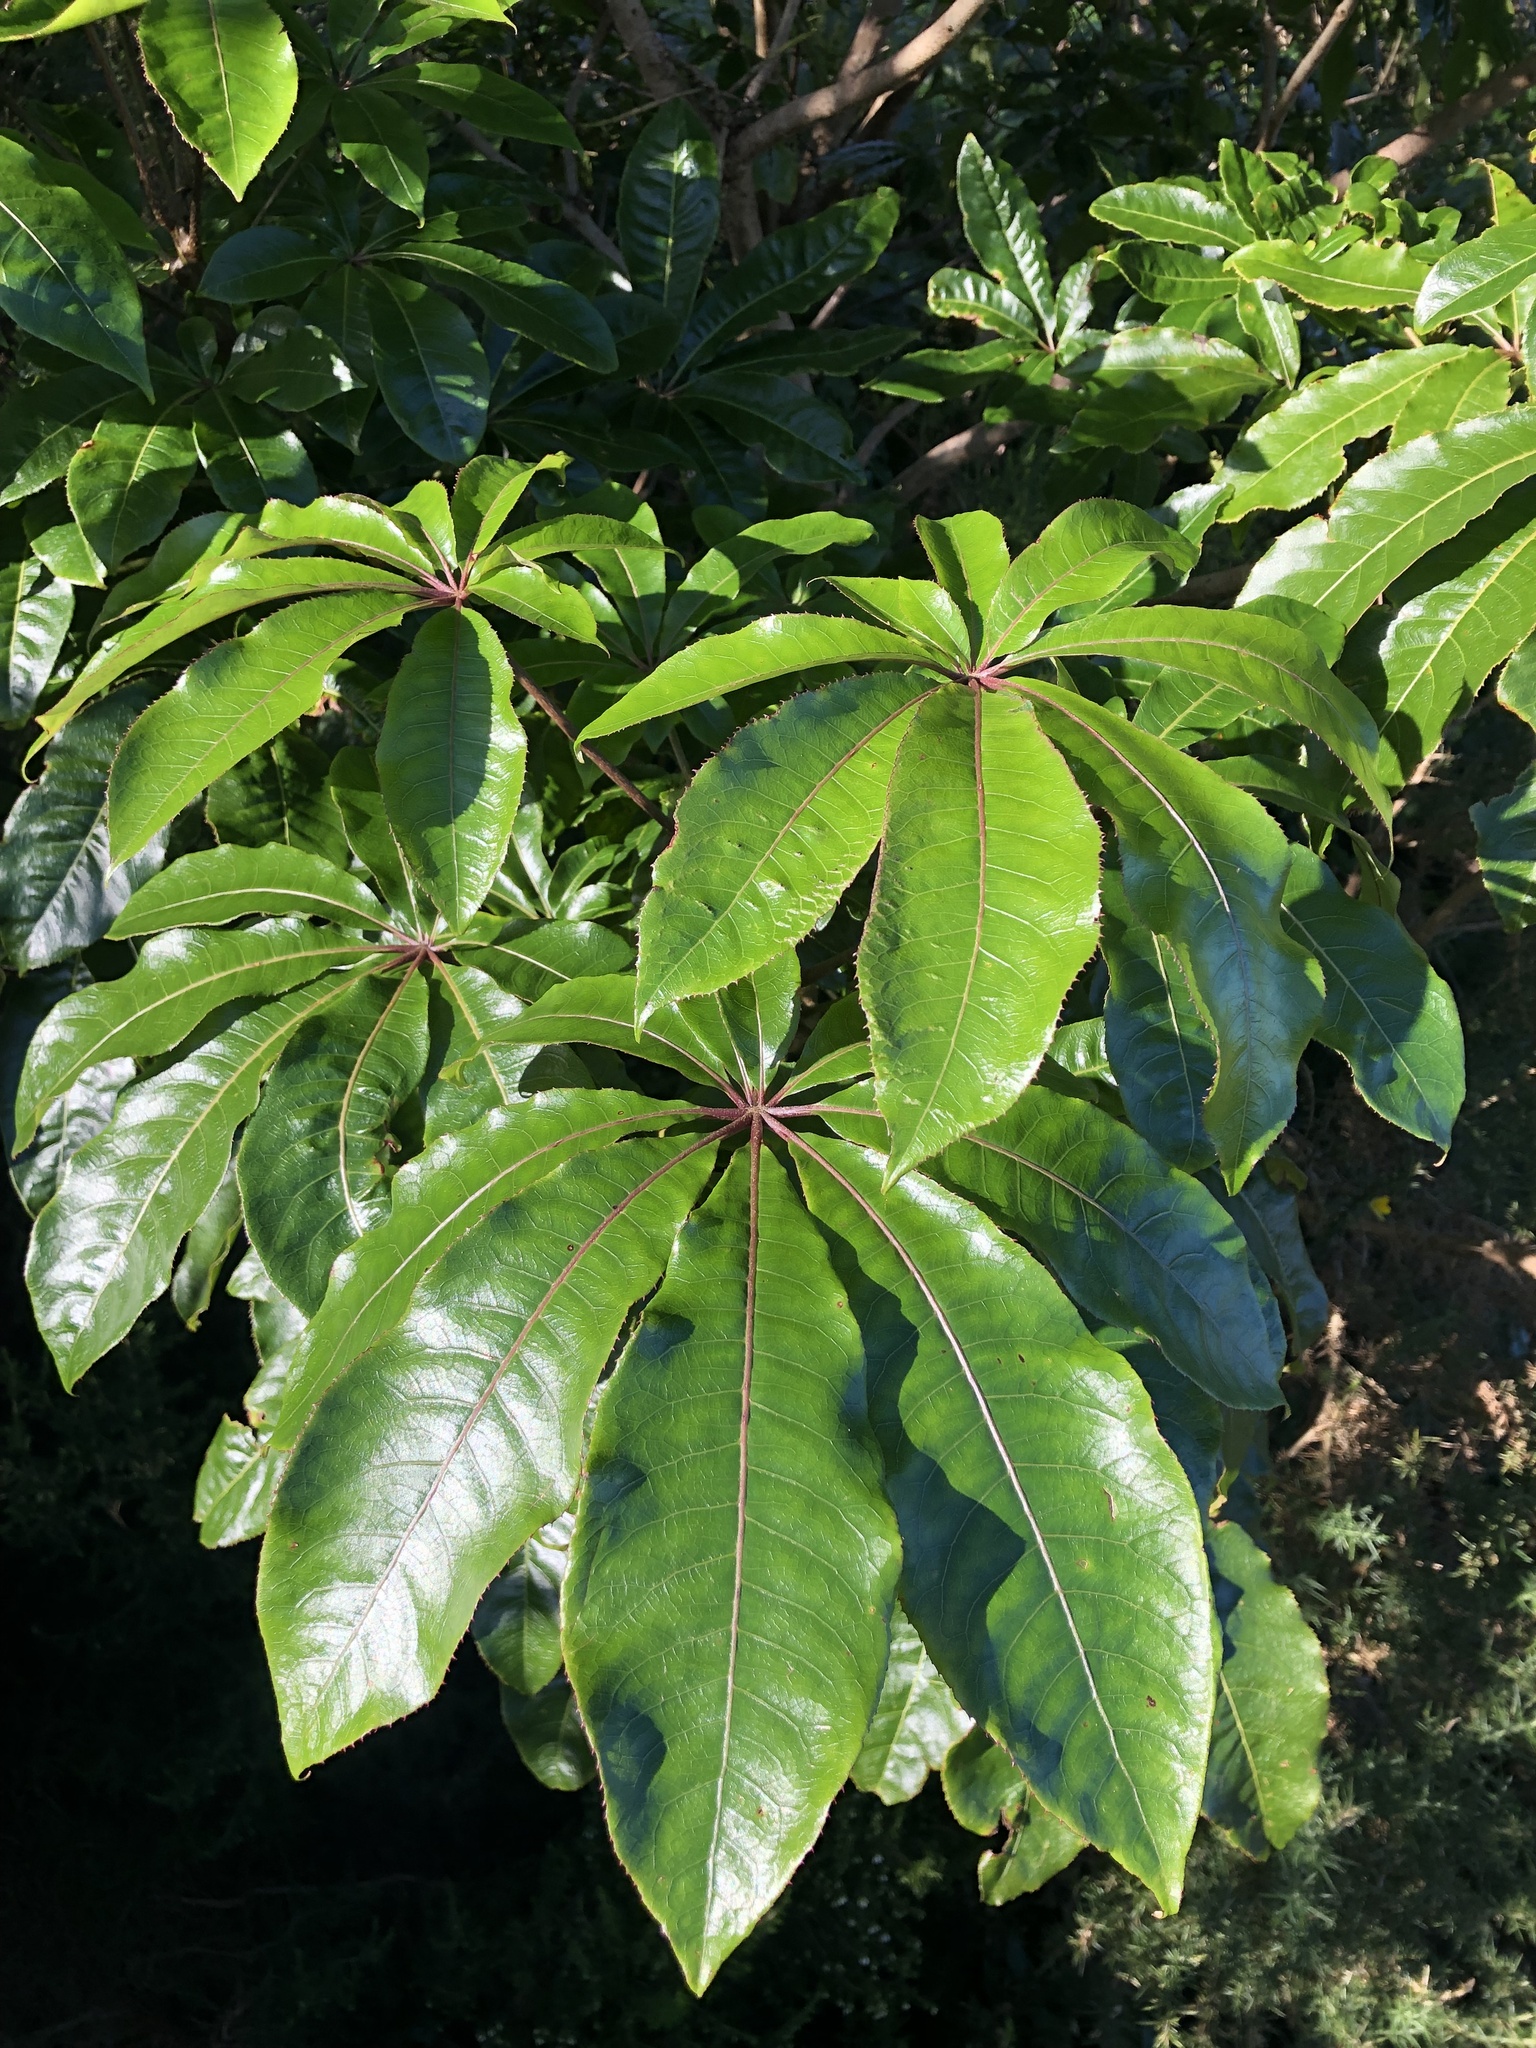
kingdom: Plantae
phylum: Tracheophyta
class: Magnoliopsida
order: Apiales
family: Araliaceae
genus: Schefflera
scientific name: Schefflera digitata
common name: Pate
